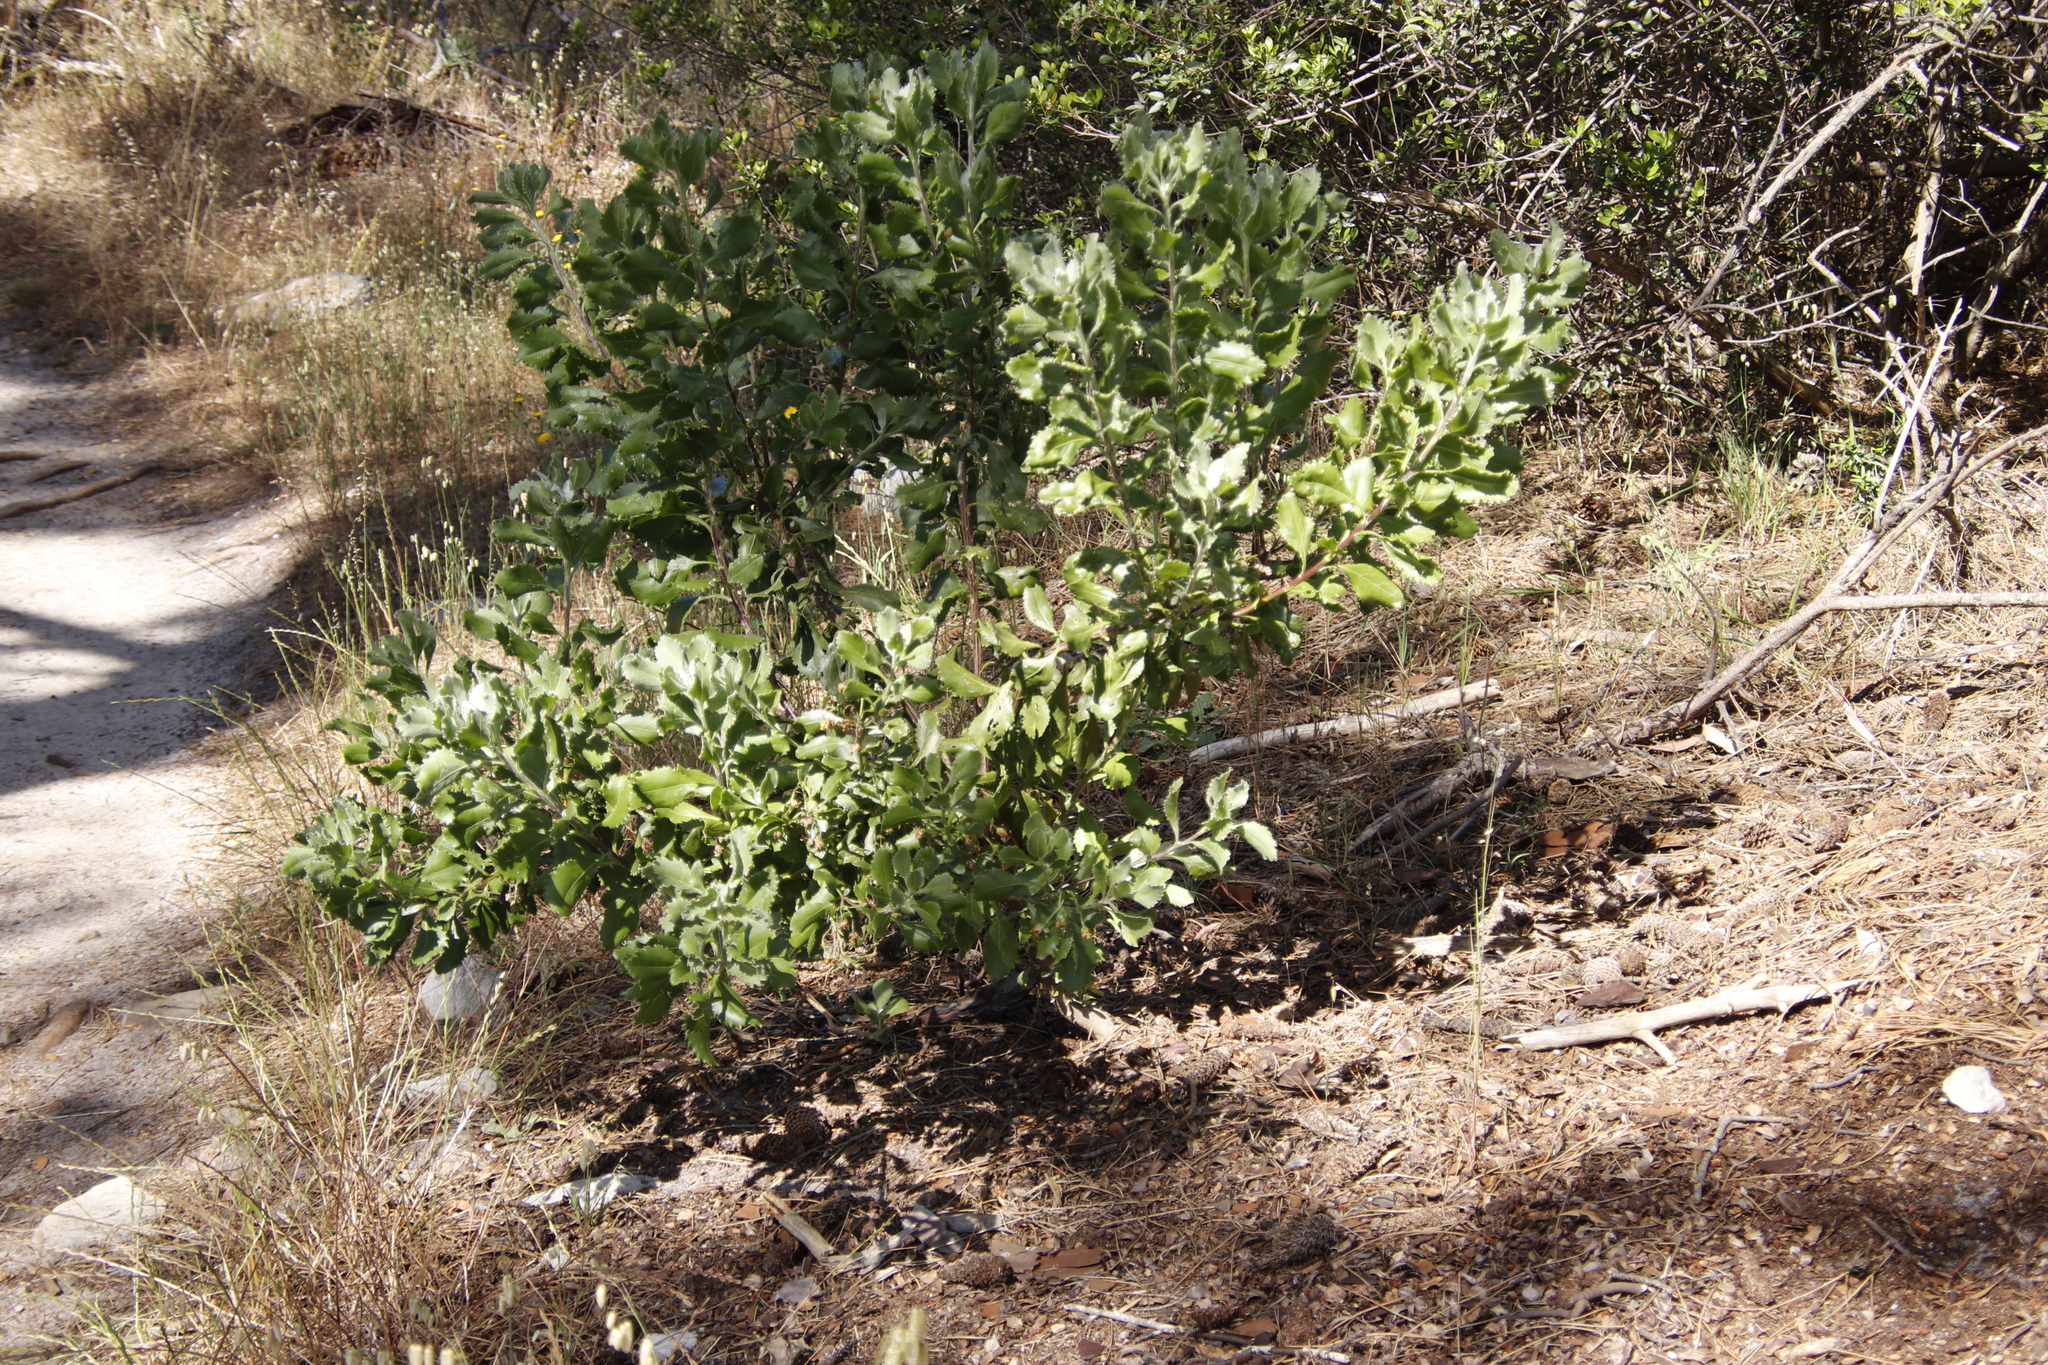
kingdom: Plantae
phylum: Tracheophyta
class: Magnoliopsida
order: Asterales
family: Asteraceae
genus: Osteospermum
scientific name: Osteospermum moniliferum
